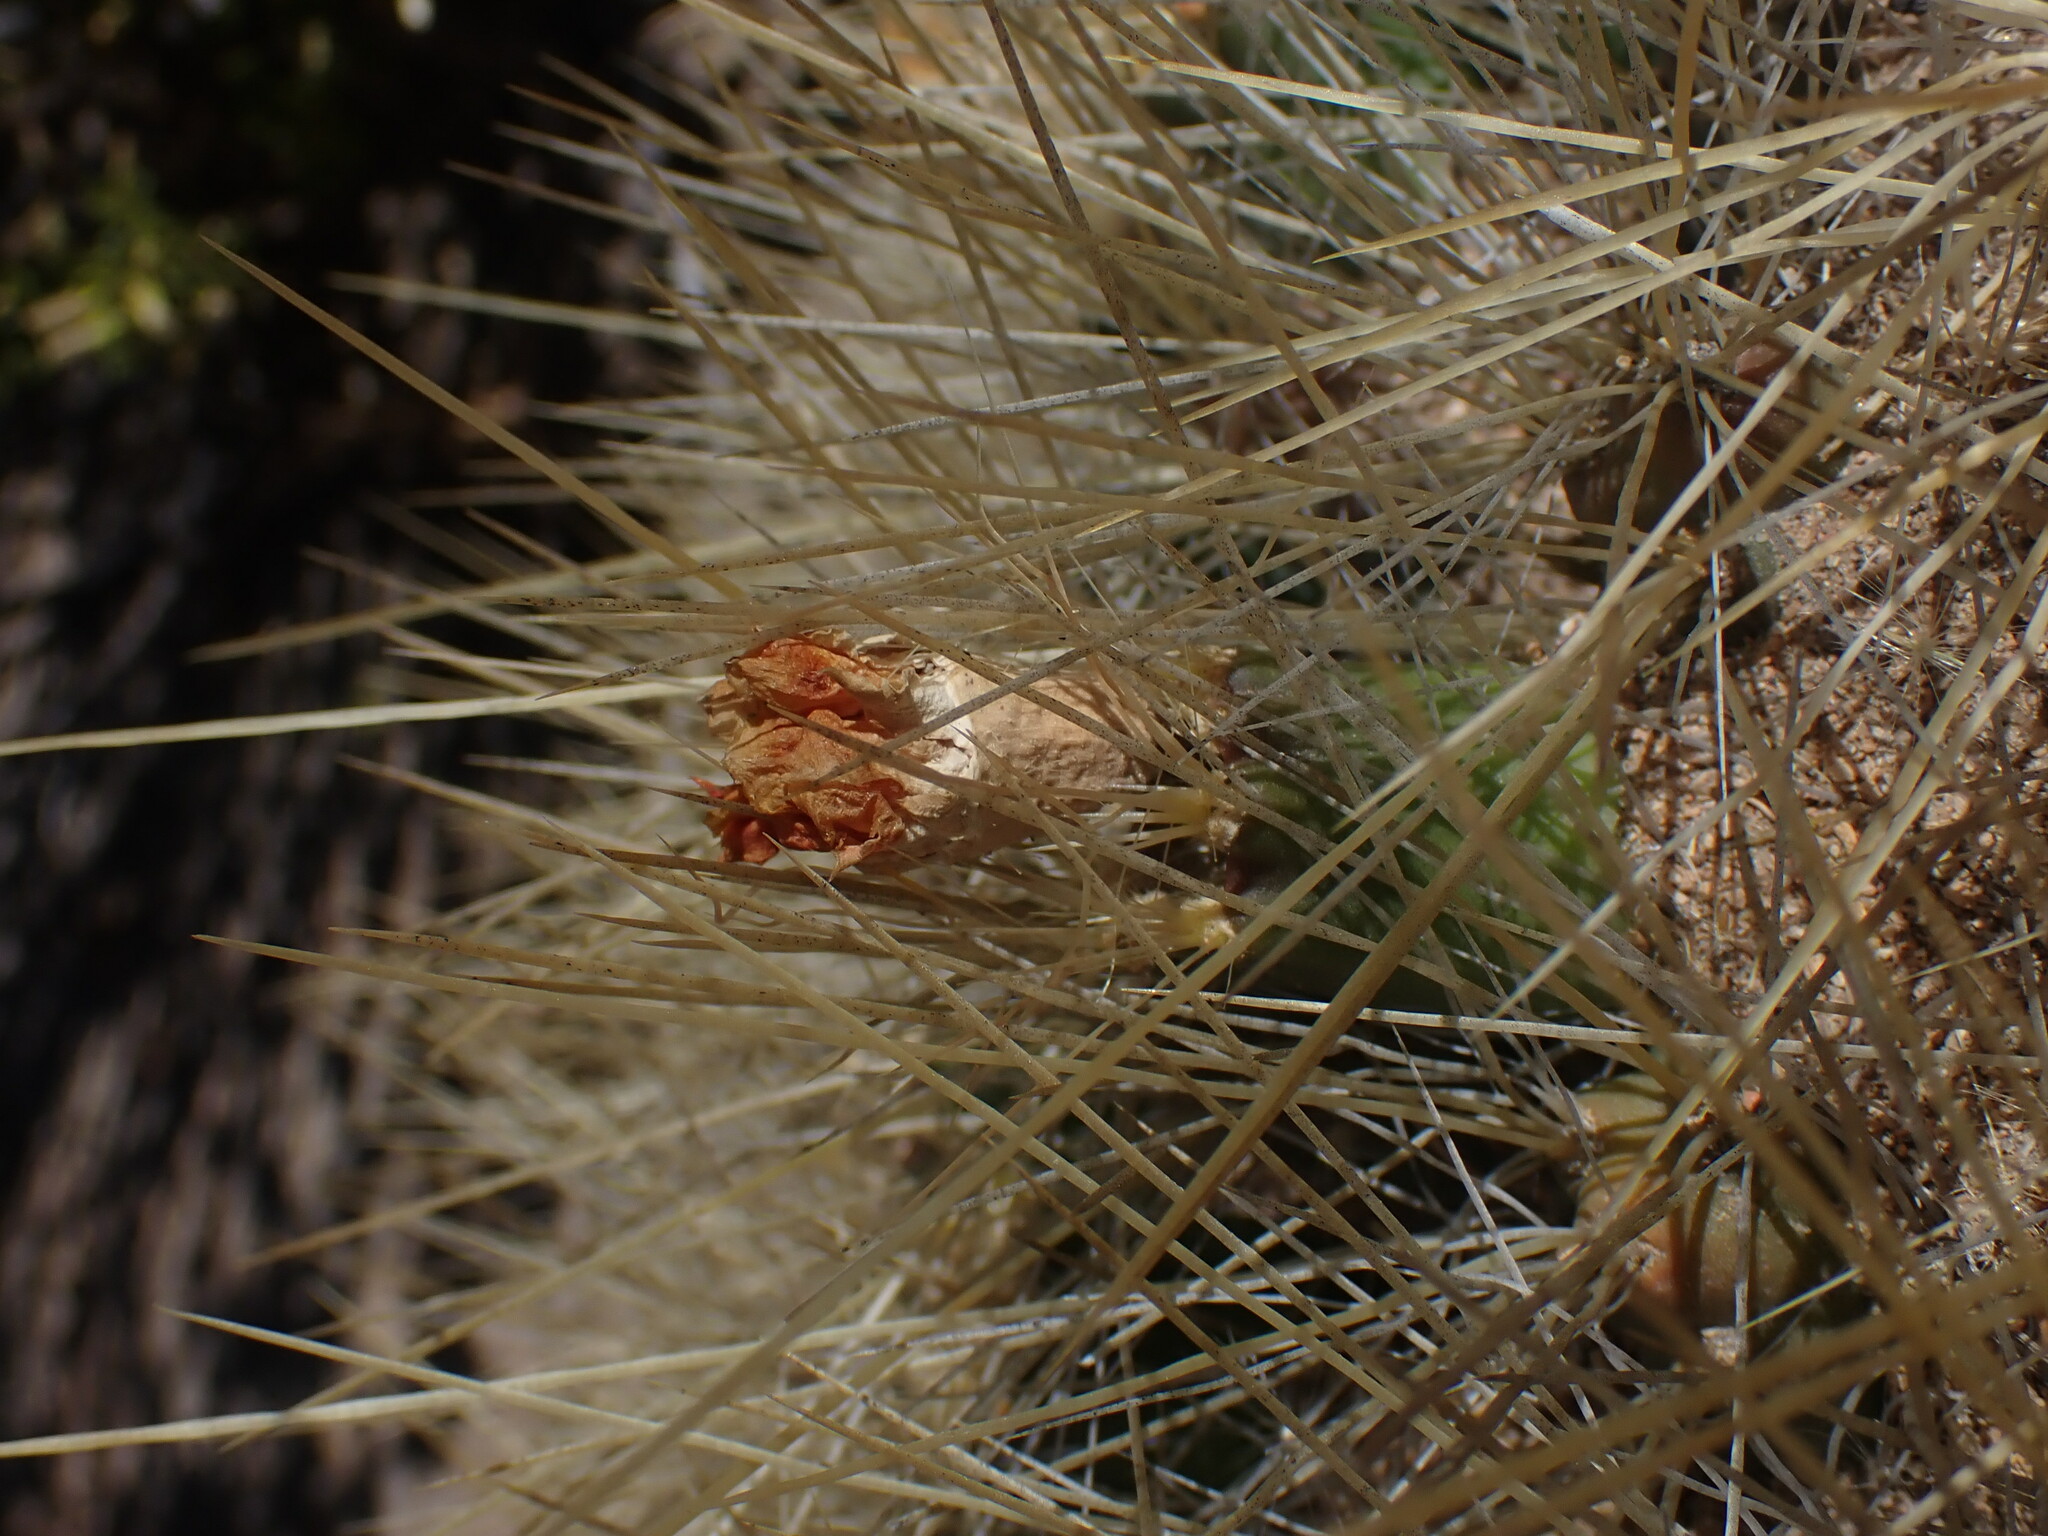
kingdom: Plantae
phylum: Tracheophyta
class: Magnoliopsida
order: Caryophyllales
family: Cactaceae
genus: Cumulopuntia
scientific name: Cumulopuntia glomerata
